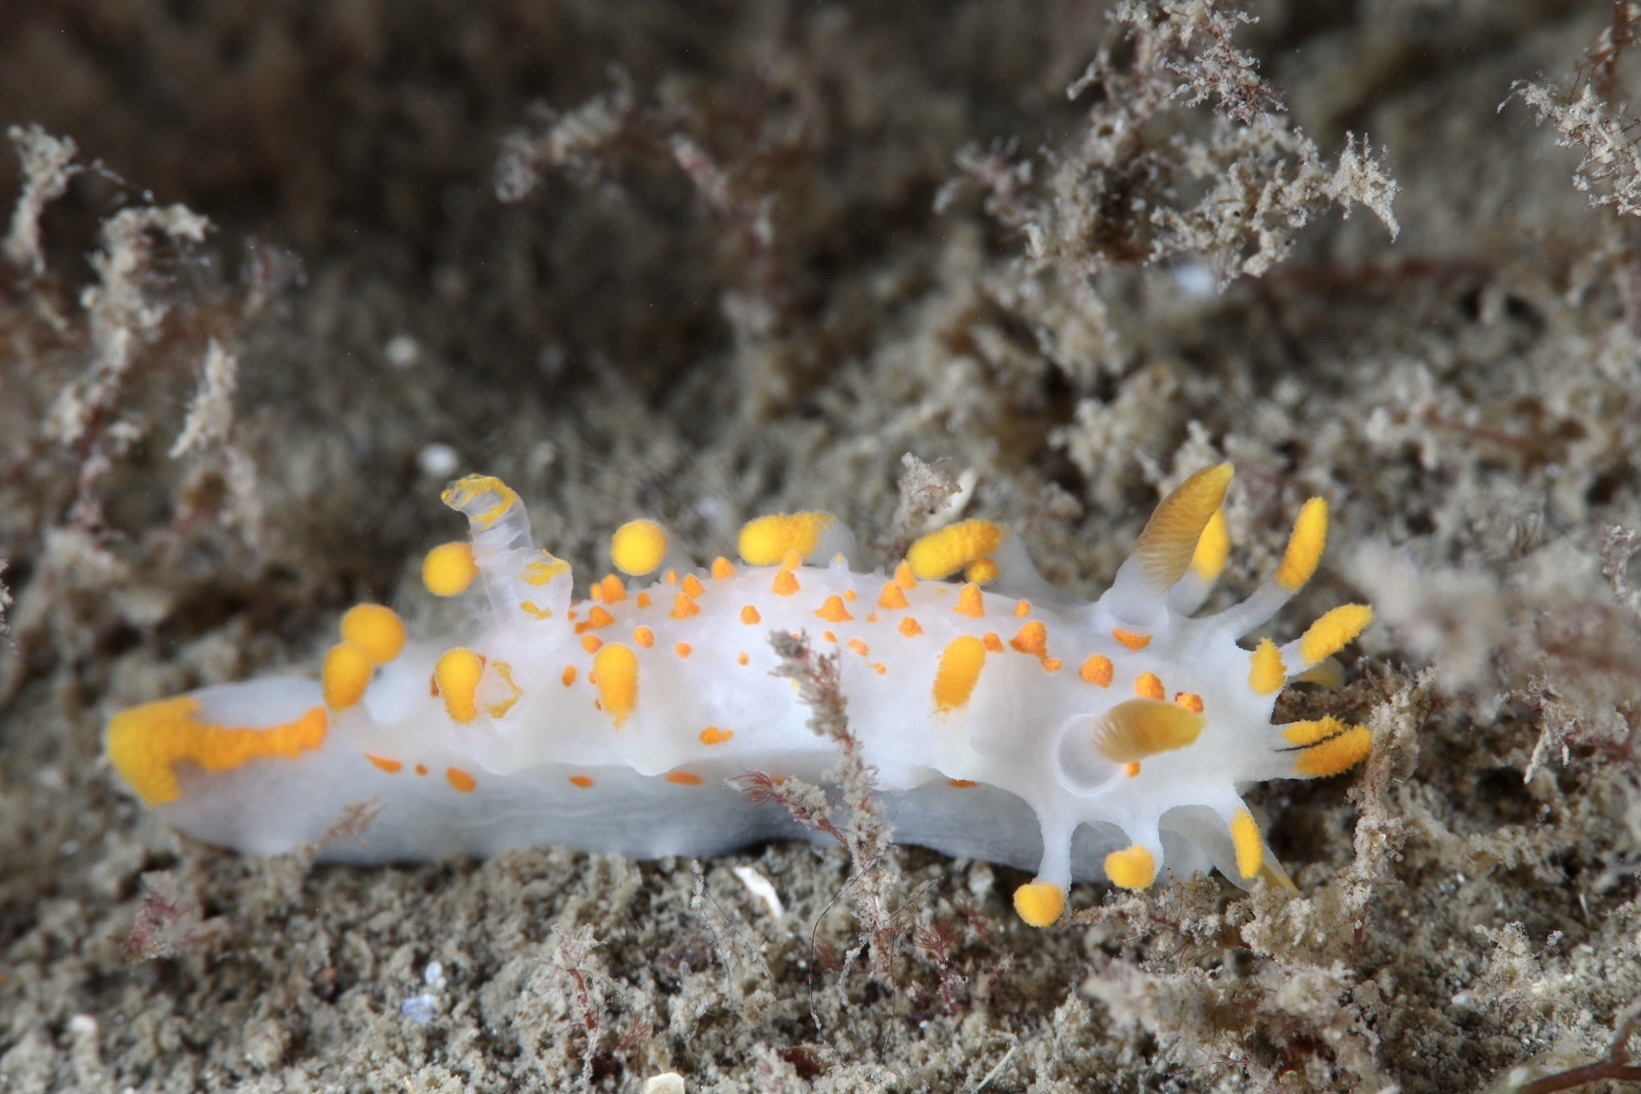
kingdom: Animalia
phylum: Mollusca
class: Gastropoda
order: Nudibranchia
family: Polyceridae
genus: Limacia
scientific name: Limacia clavigera
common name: Orange-clubbed sea slug
